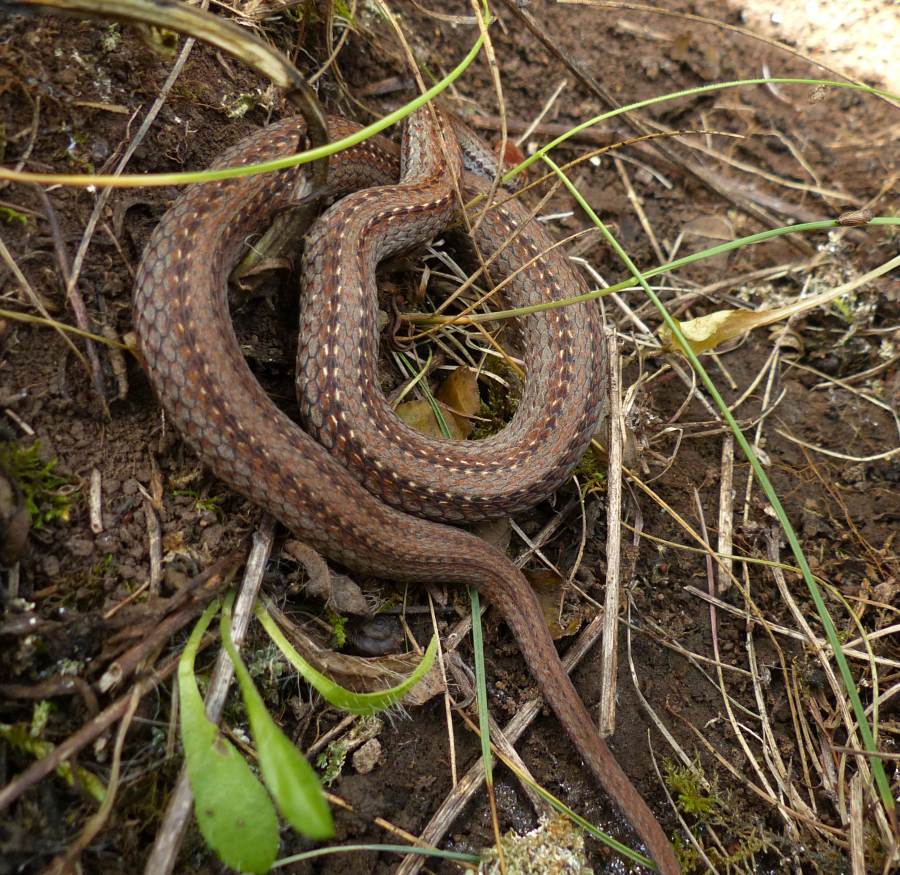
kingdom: Animalia
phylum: Chordata
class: Squamata
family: Colubridae
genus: Storeria
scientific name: Storeria occipitomaculata
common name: Redbelly snake
